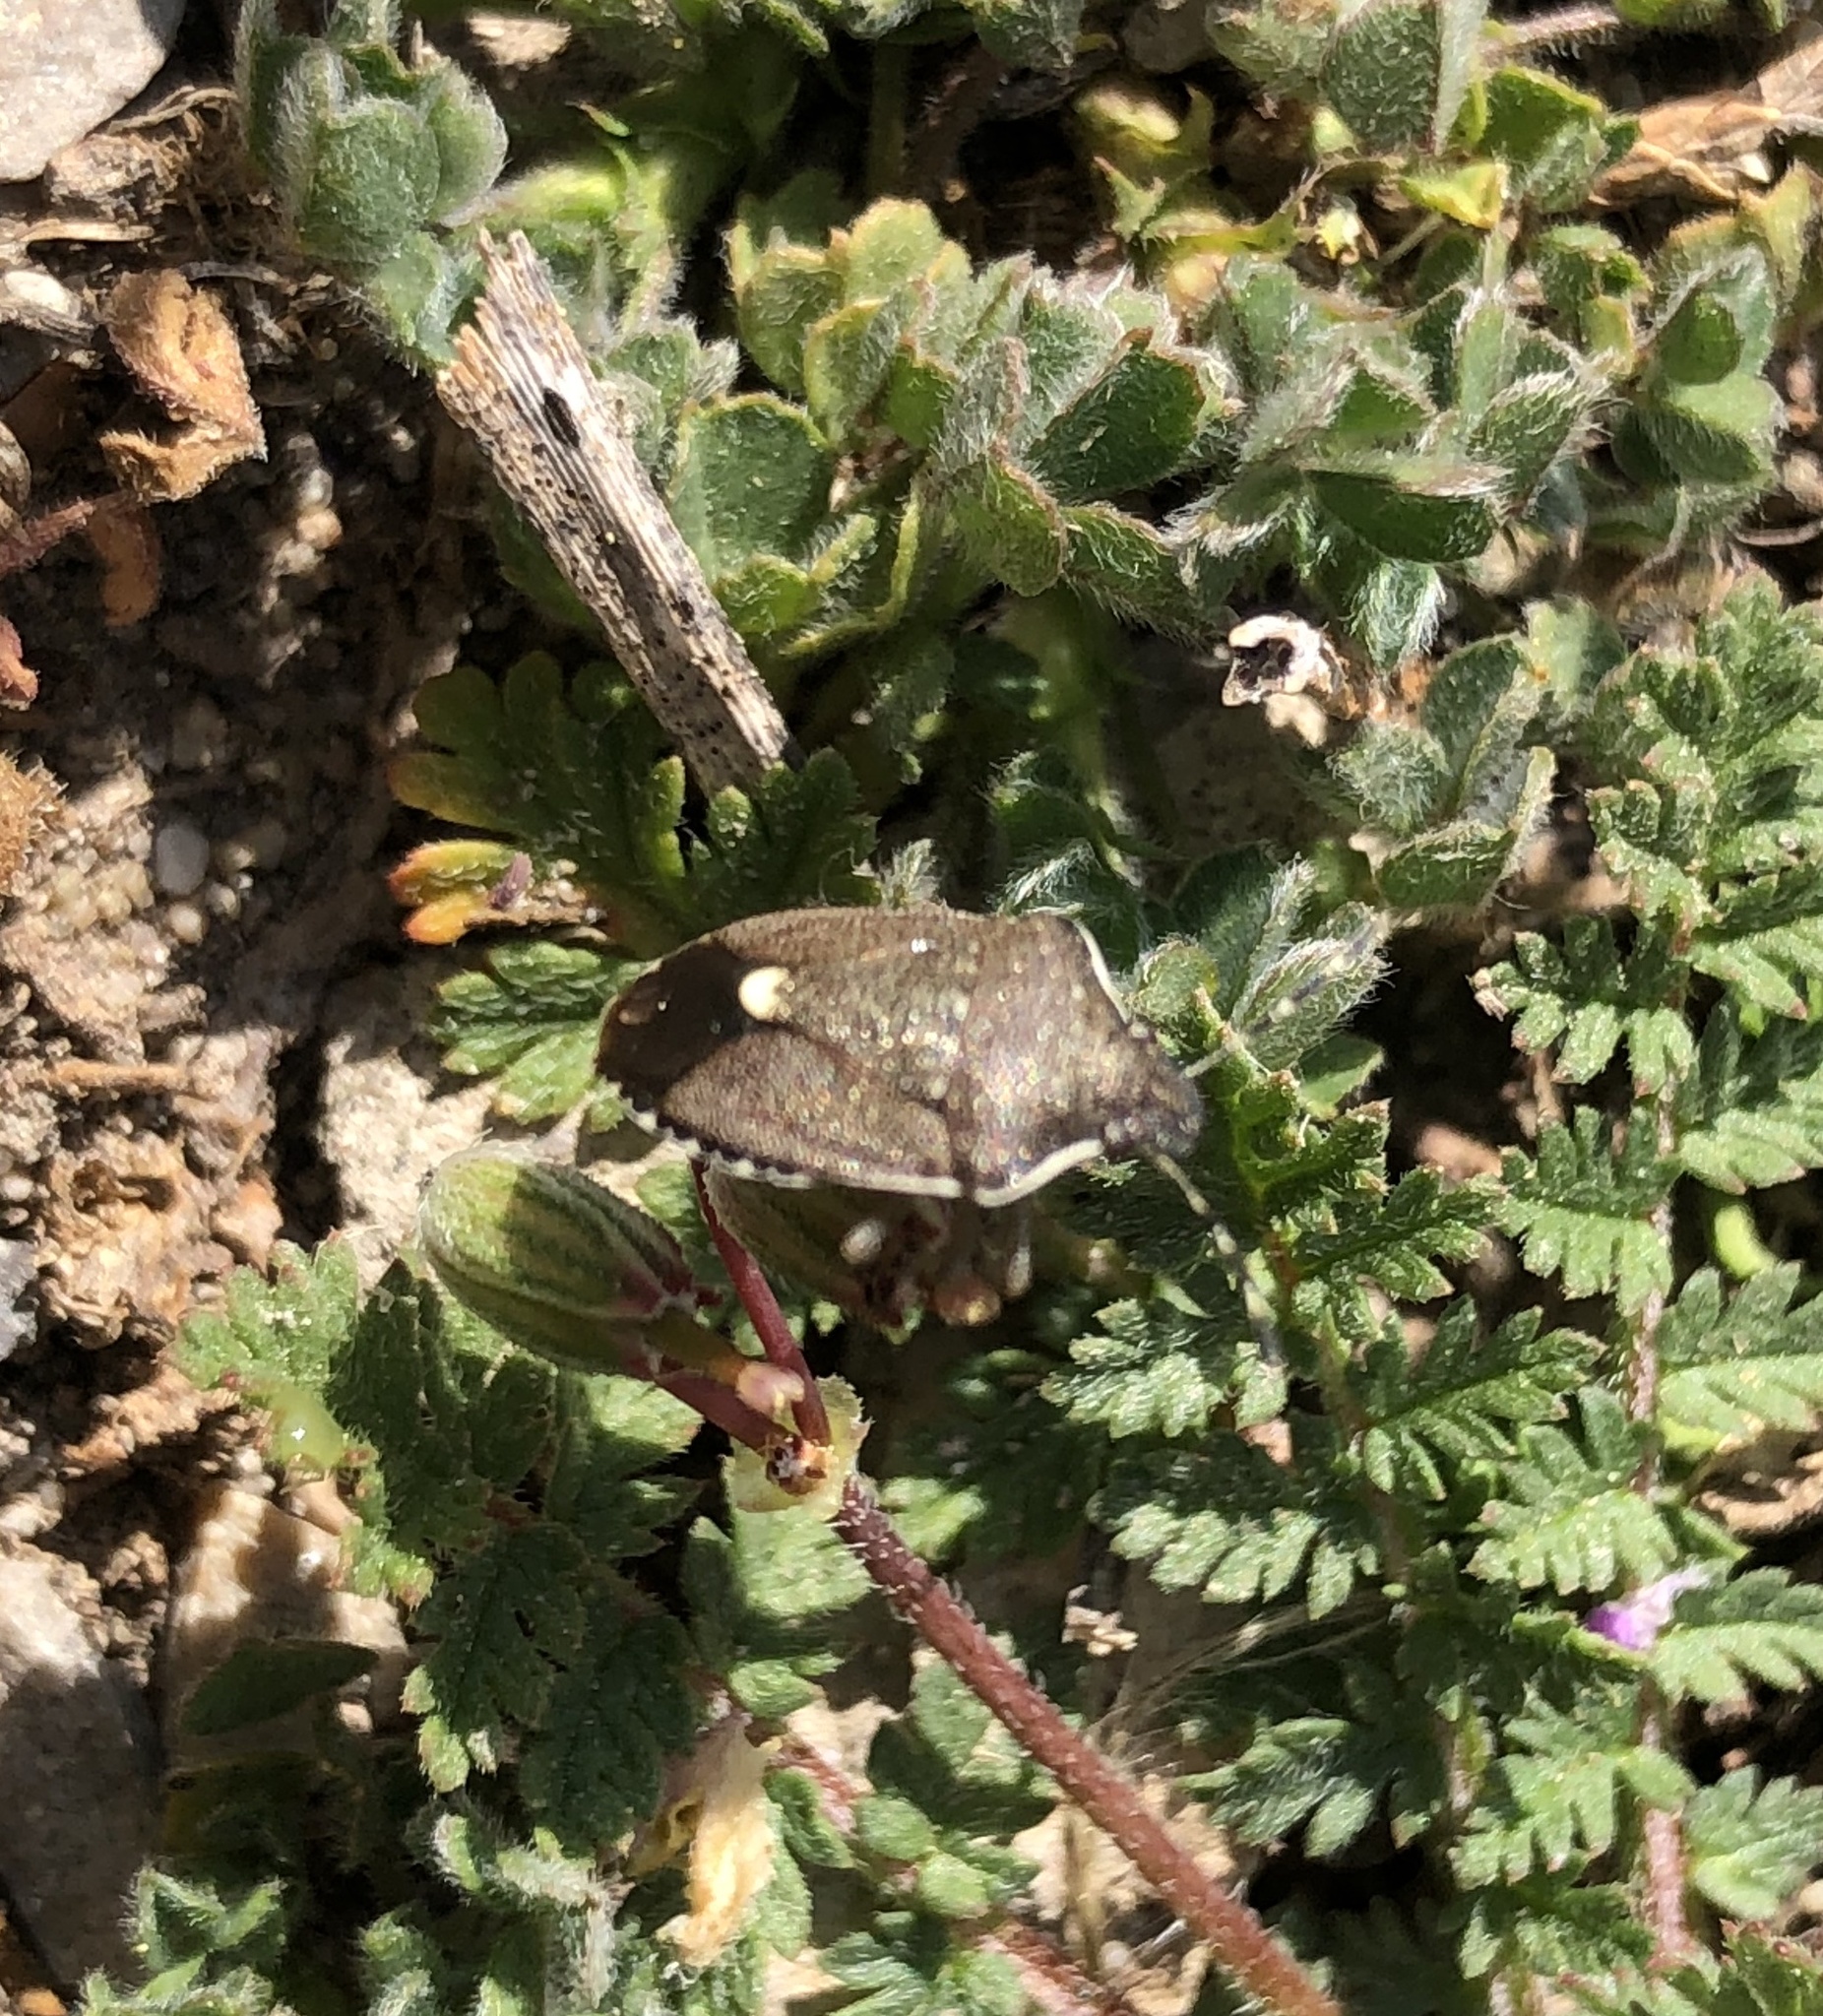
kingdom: Animalia
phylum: Arthropoda
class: Insecta
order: Hemiptera
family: Pentatomidae
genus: Holcostethus
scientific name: Holcostethus albipes
